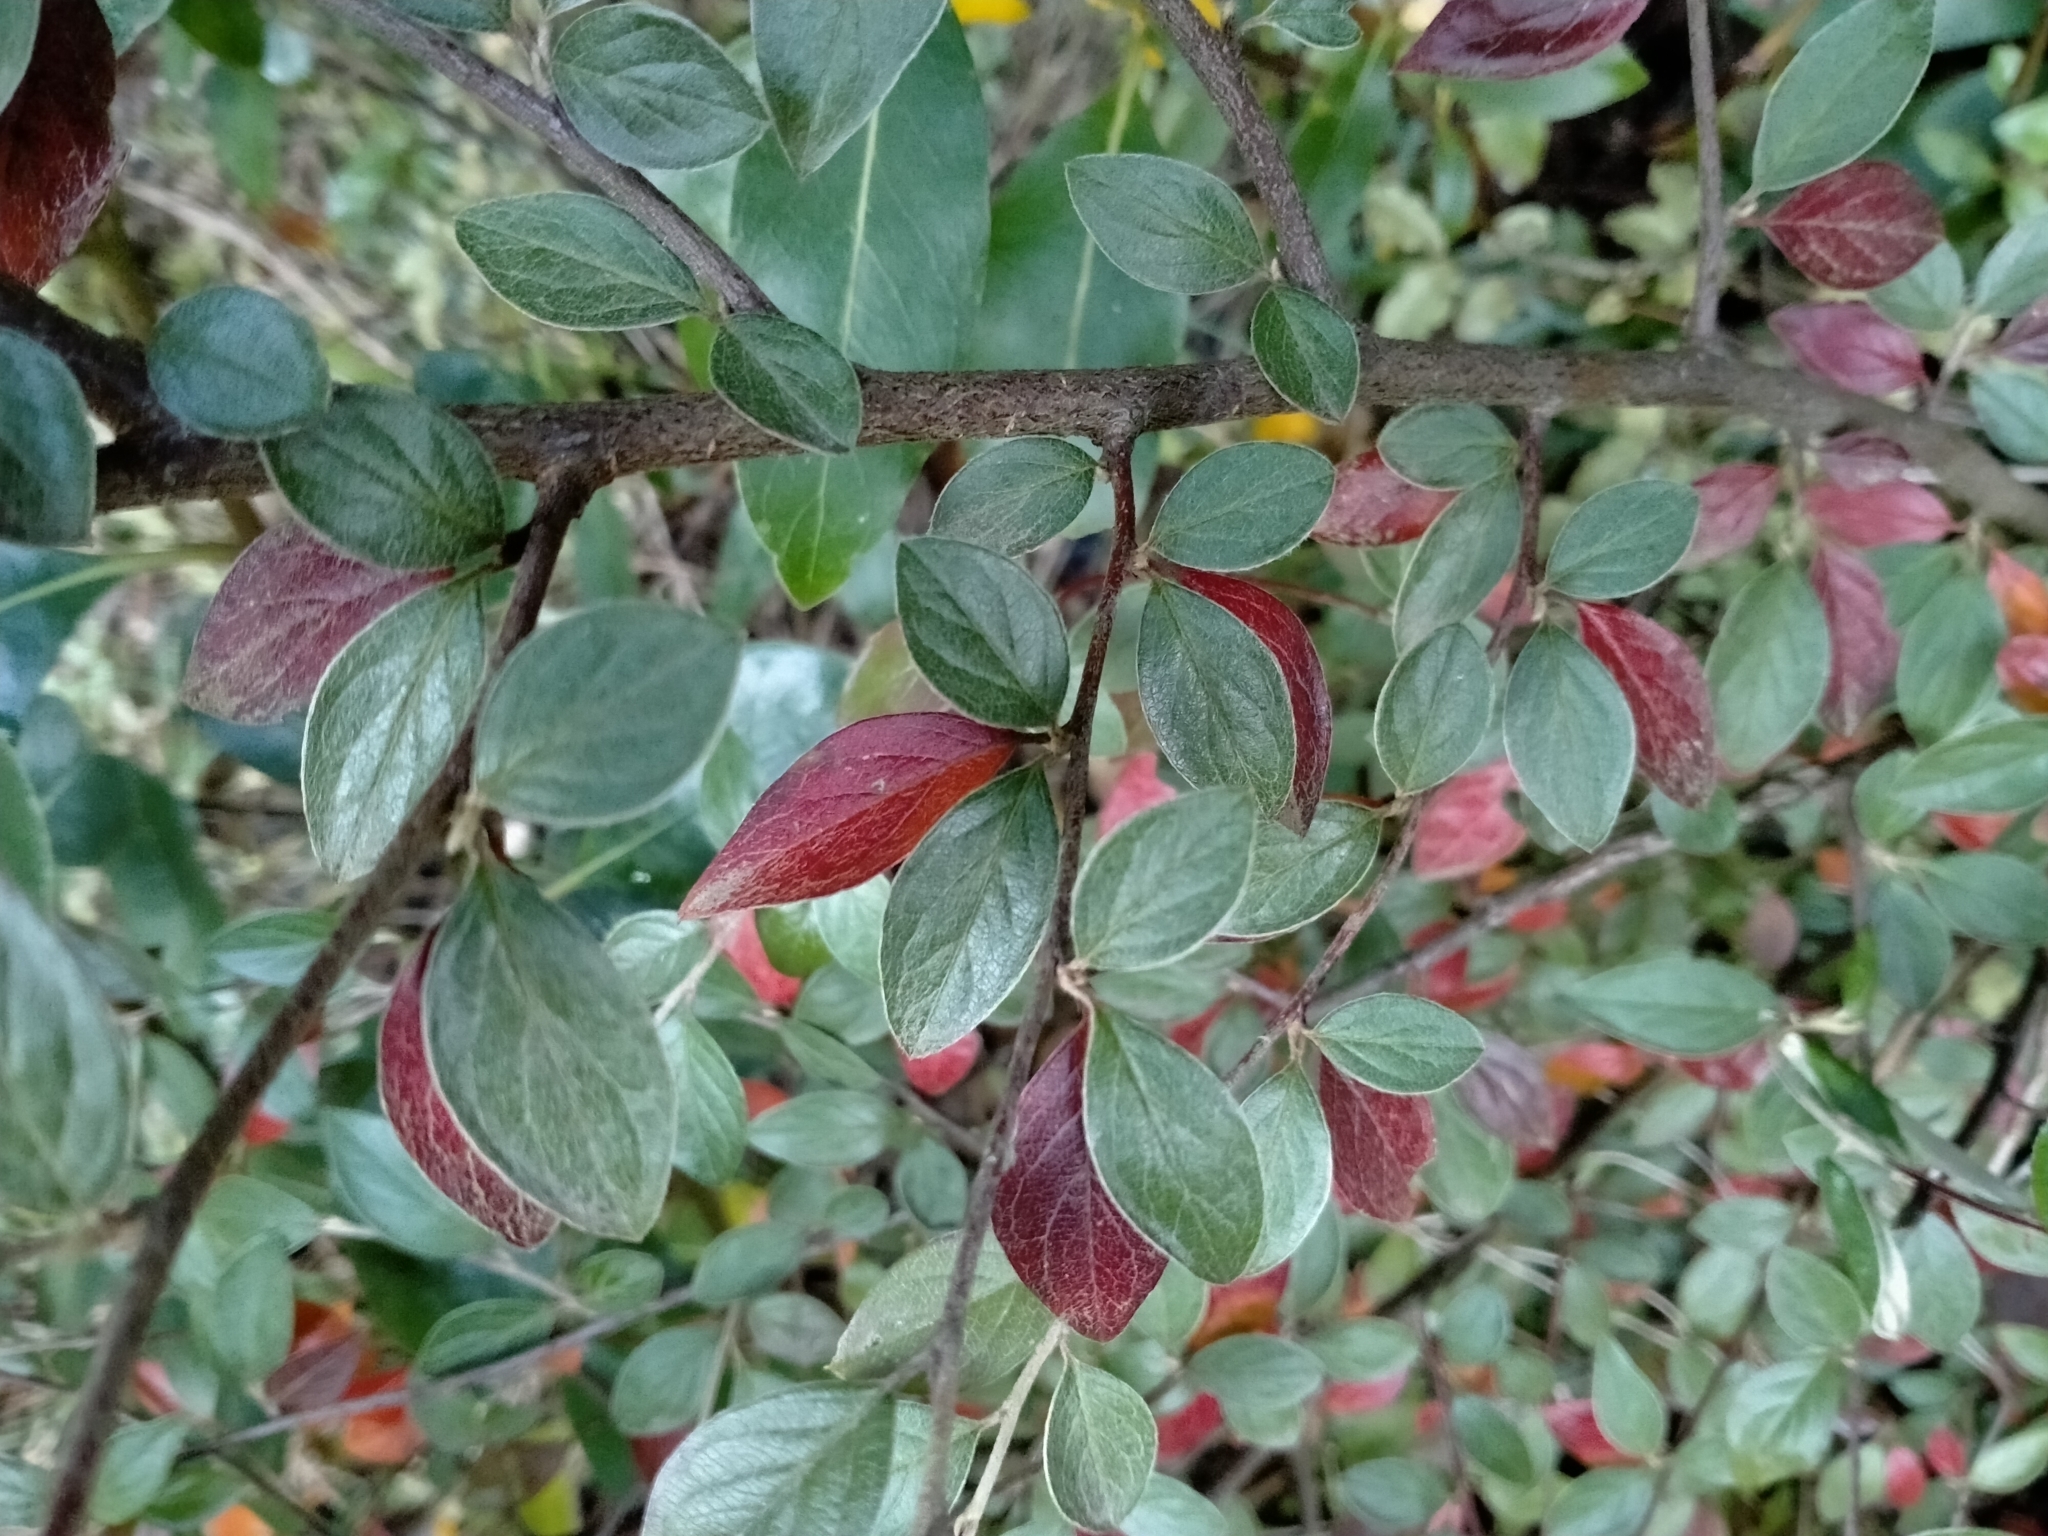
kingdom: Plantae
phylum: Tracheophyta
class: Magnoliopsida
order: Rosales
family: Rosaceae
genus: Cotoneaster
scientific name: Cotoneaster franchetii
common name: Franchet's cotoneaster
